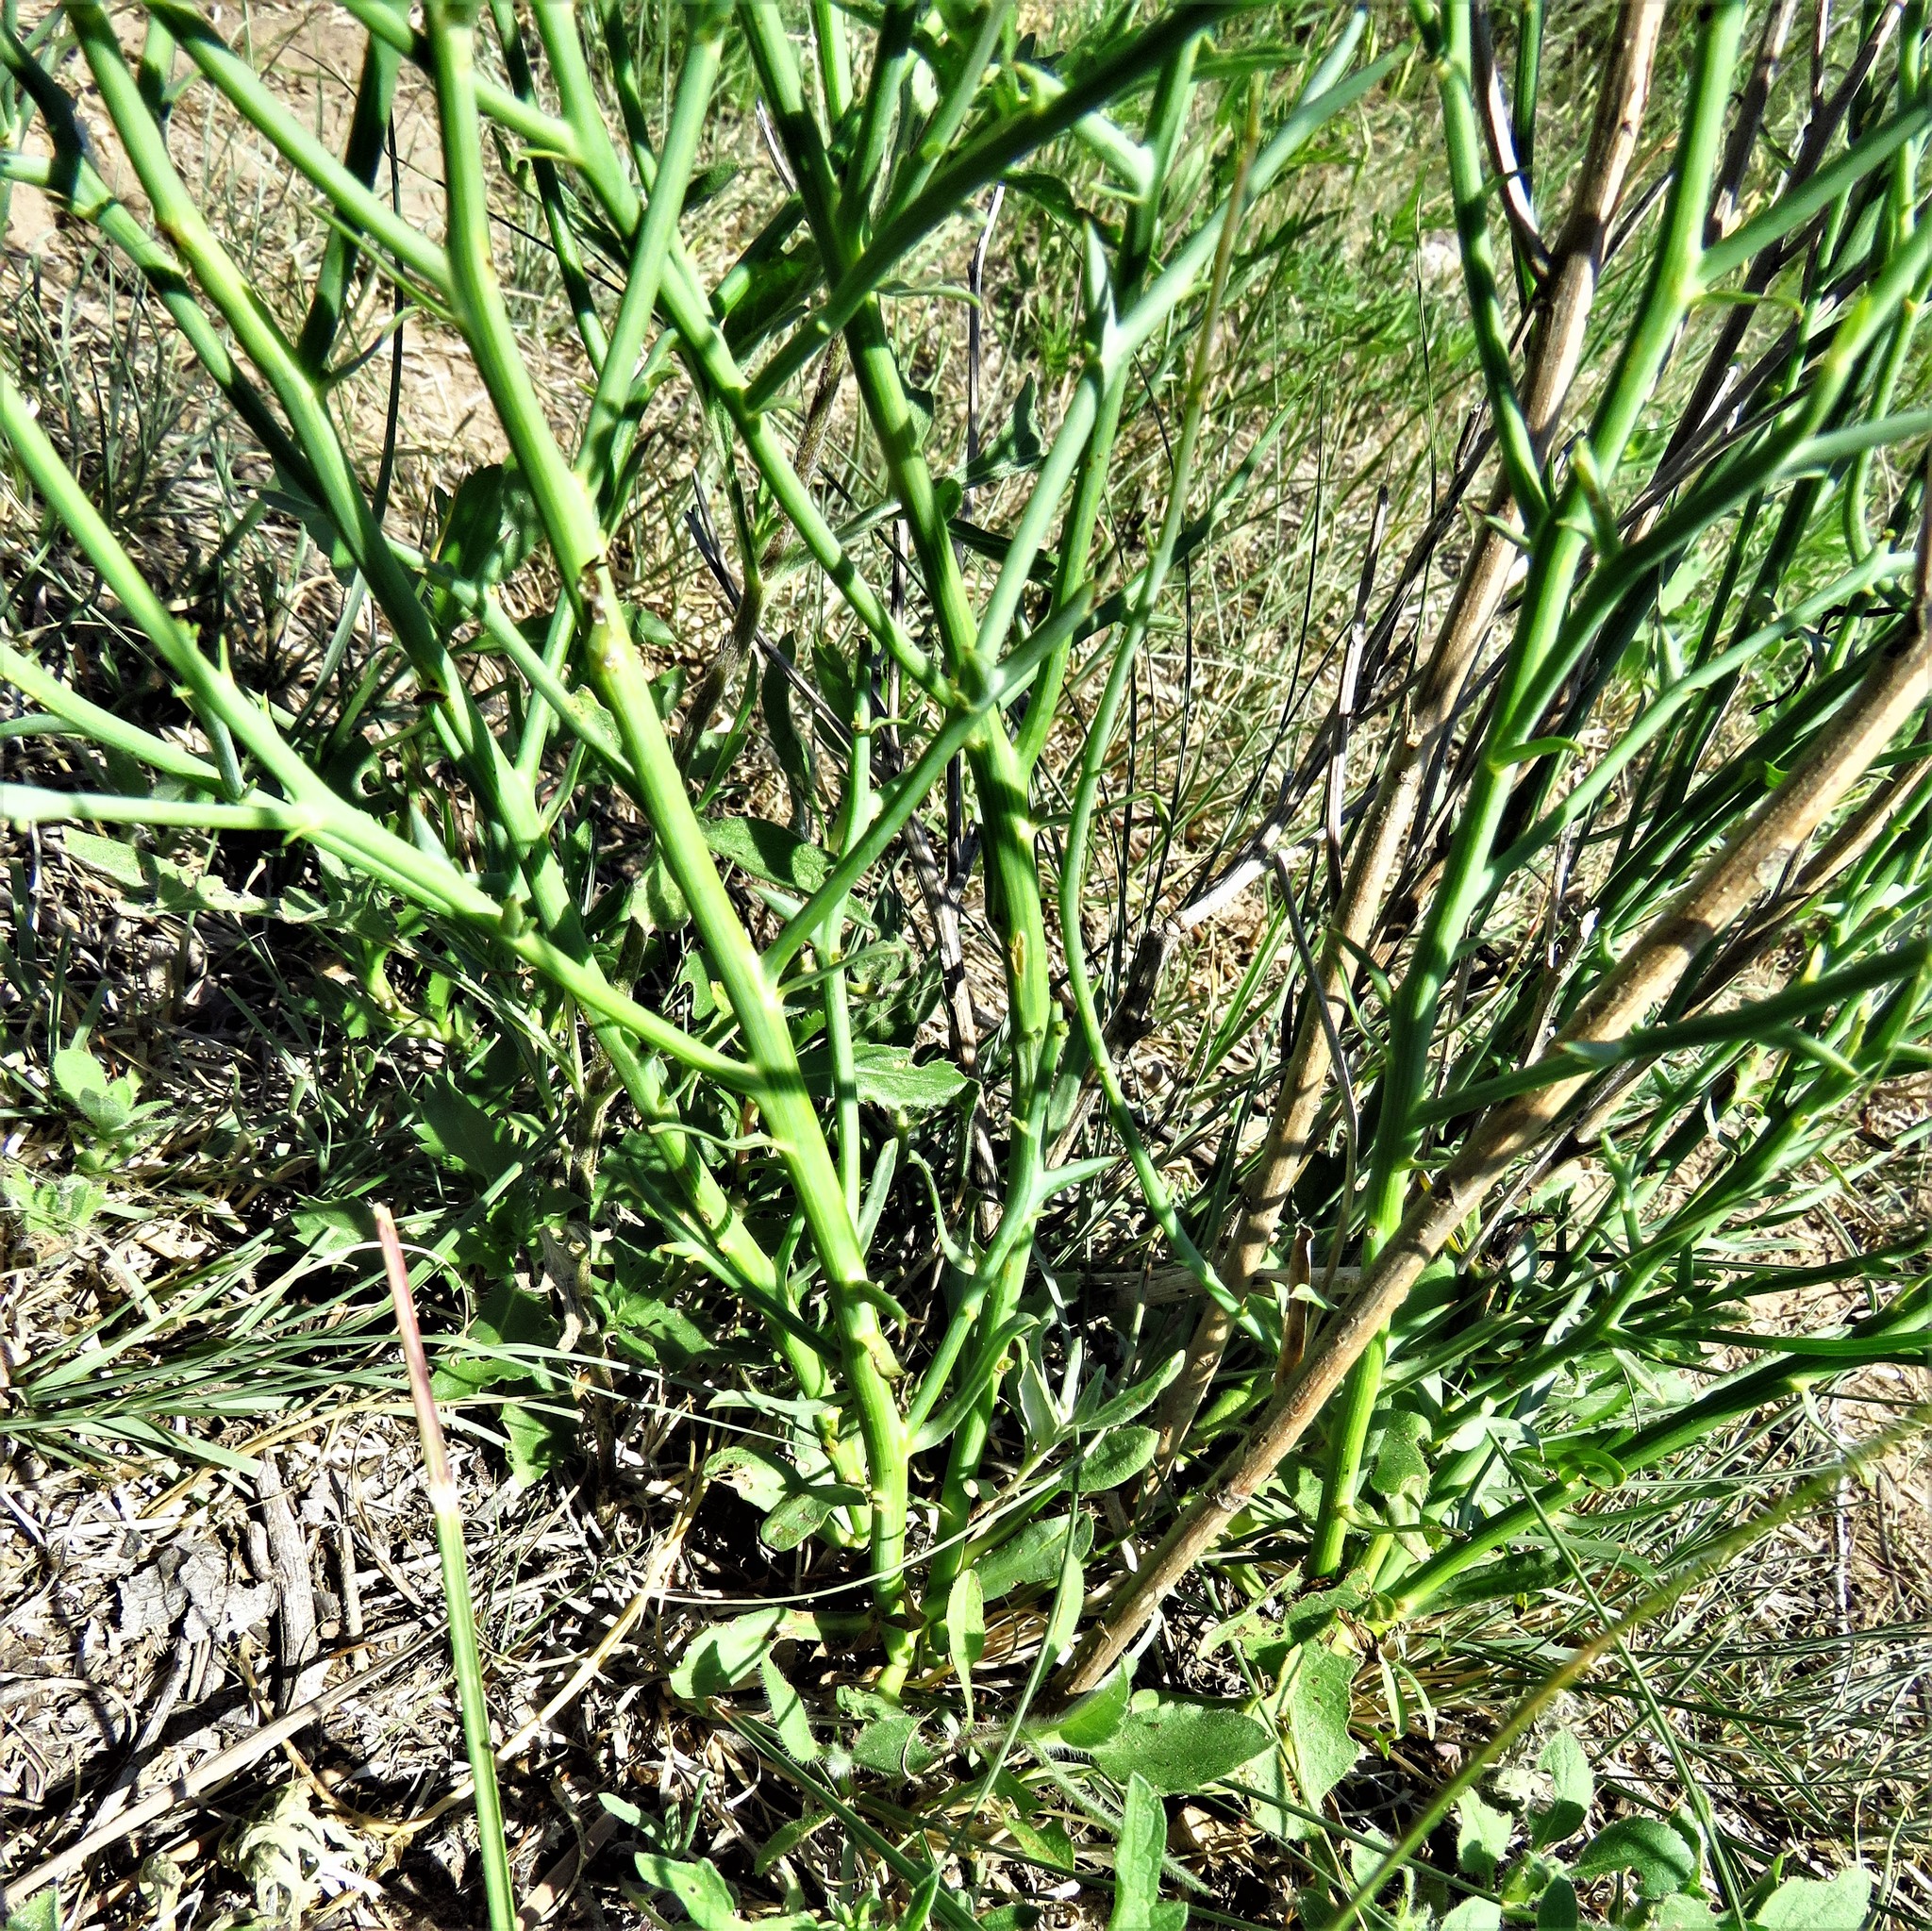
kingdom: Plantae
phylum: Tracheophyta
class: Magnoliopsida
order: Asterales
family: Asteraceae
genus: Chloracantha
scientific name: Chloracantha spinosa
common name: Mexican devilweed
